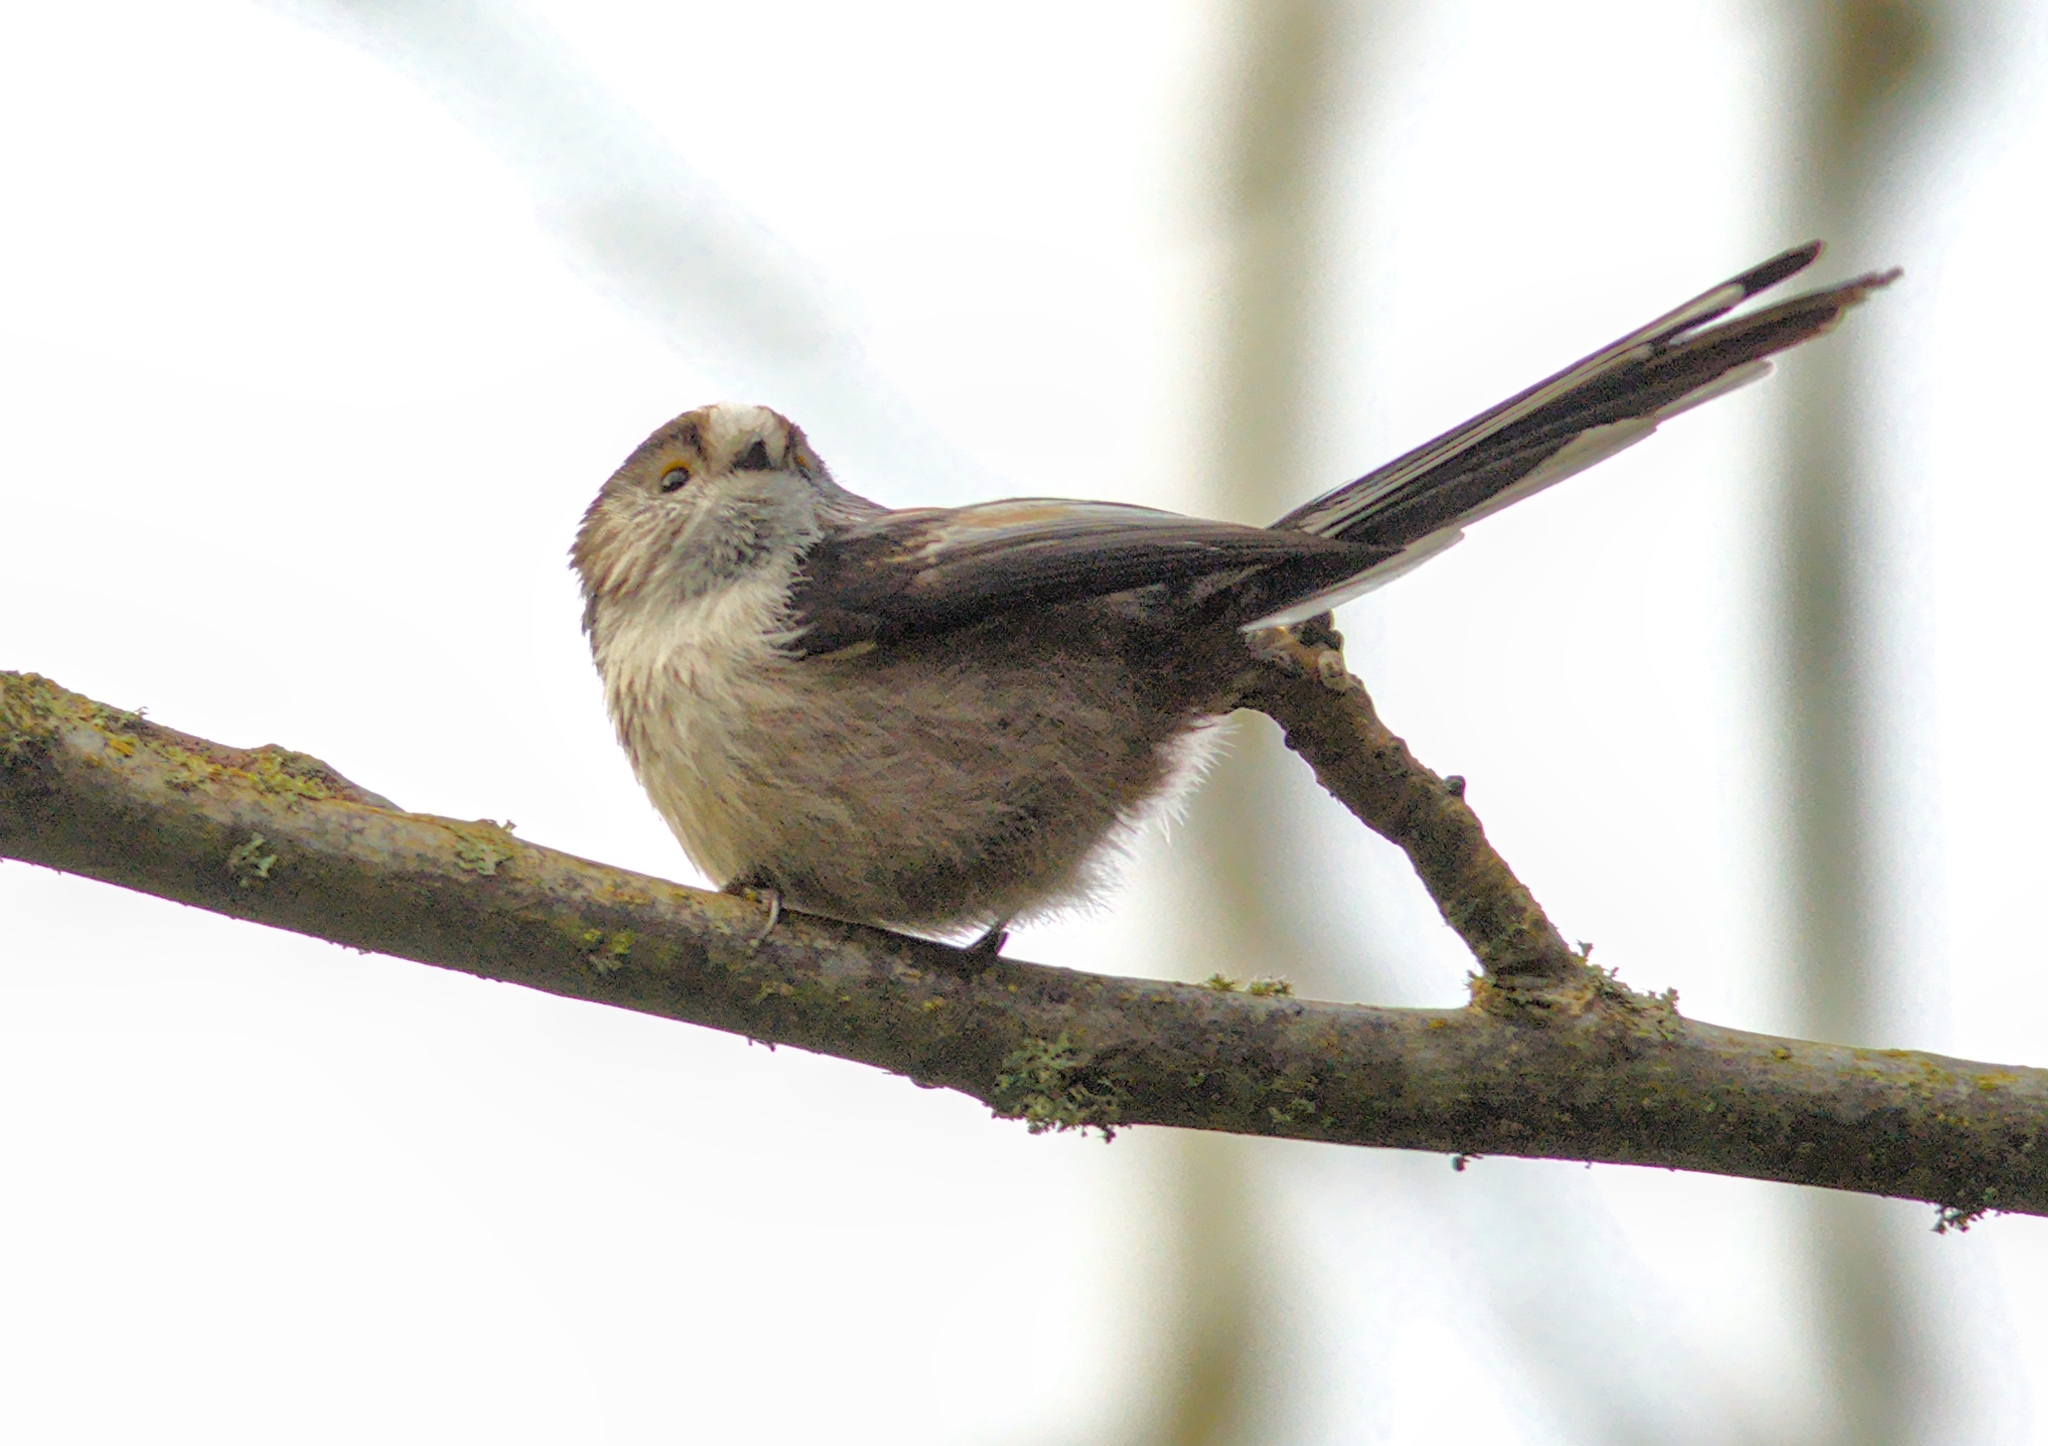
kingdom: Animalia
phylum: Chordata
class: Aves
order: Passeriformes
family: Aegithalidae
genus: Aegithalos
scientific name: Aegithalos caudatus
